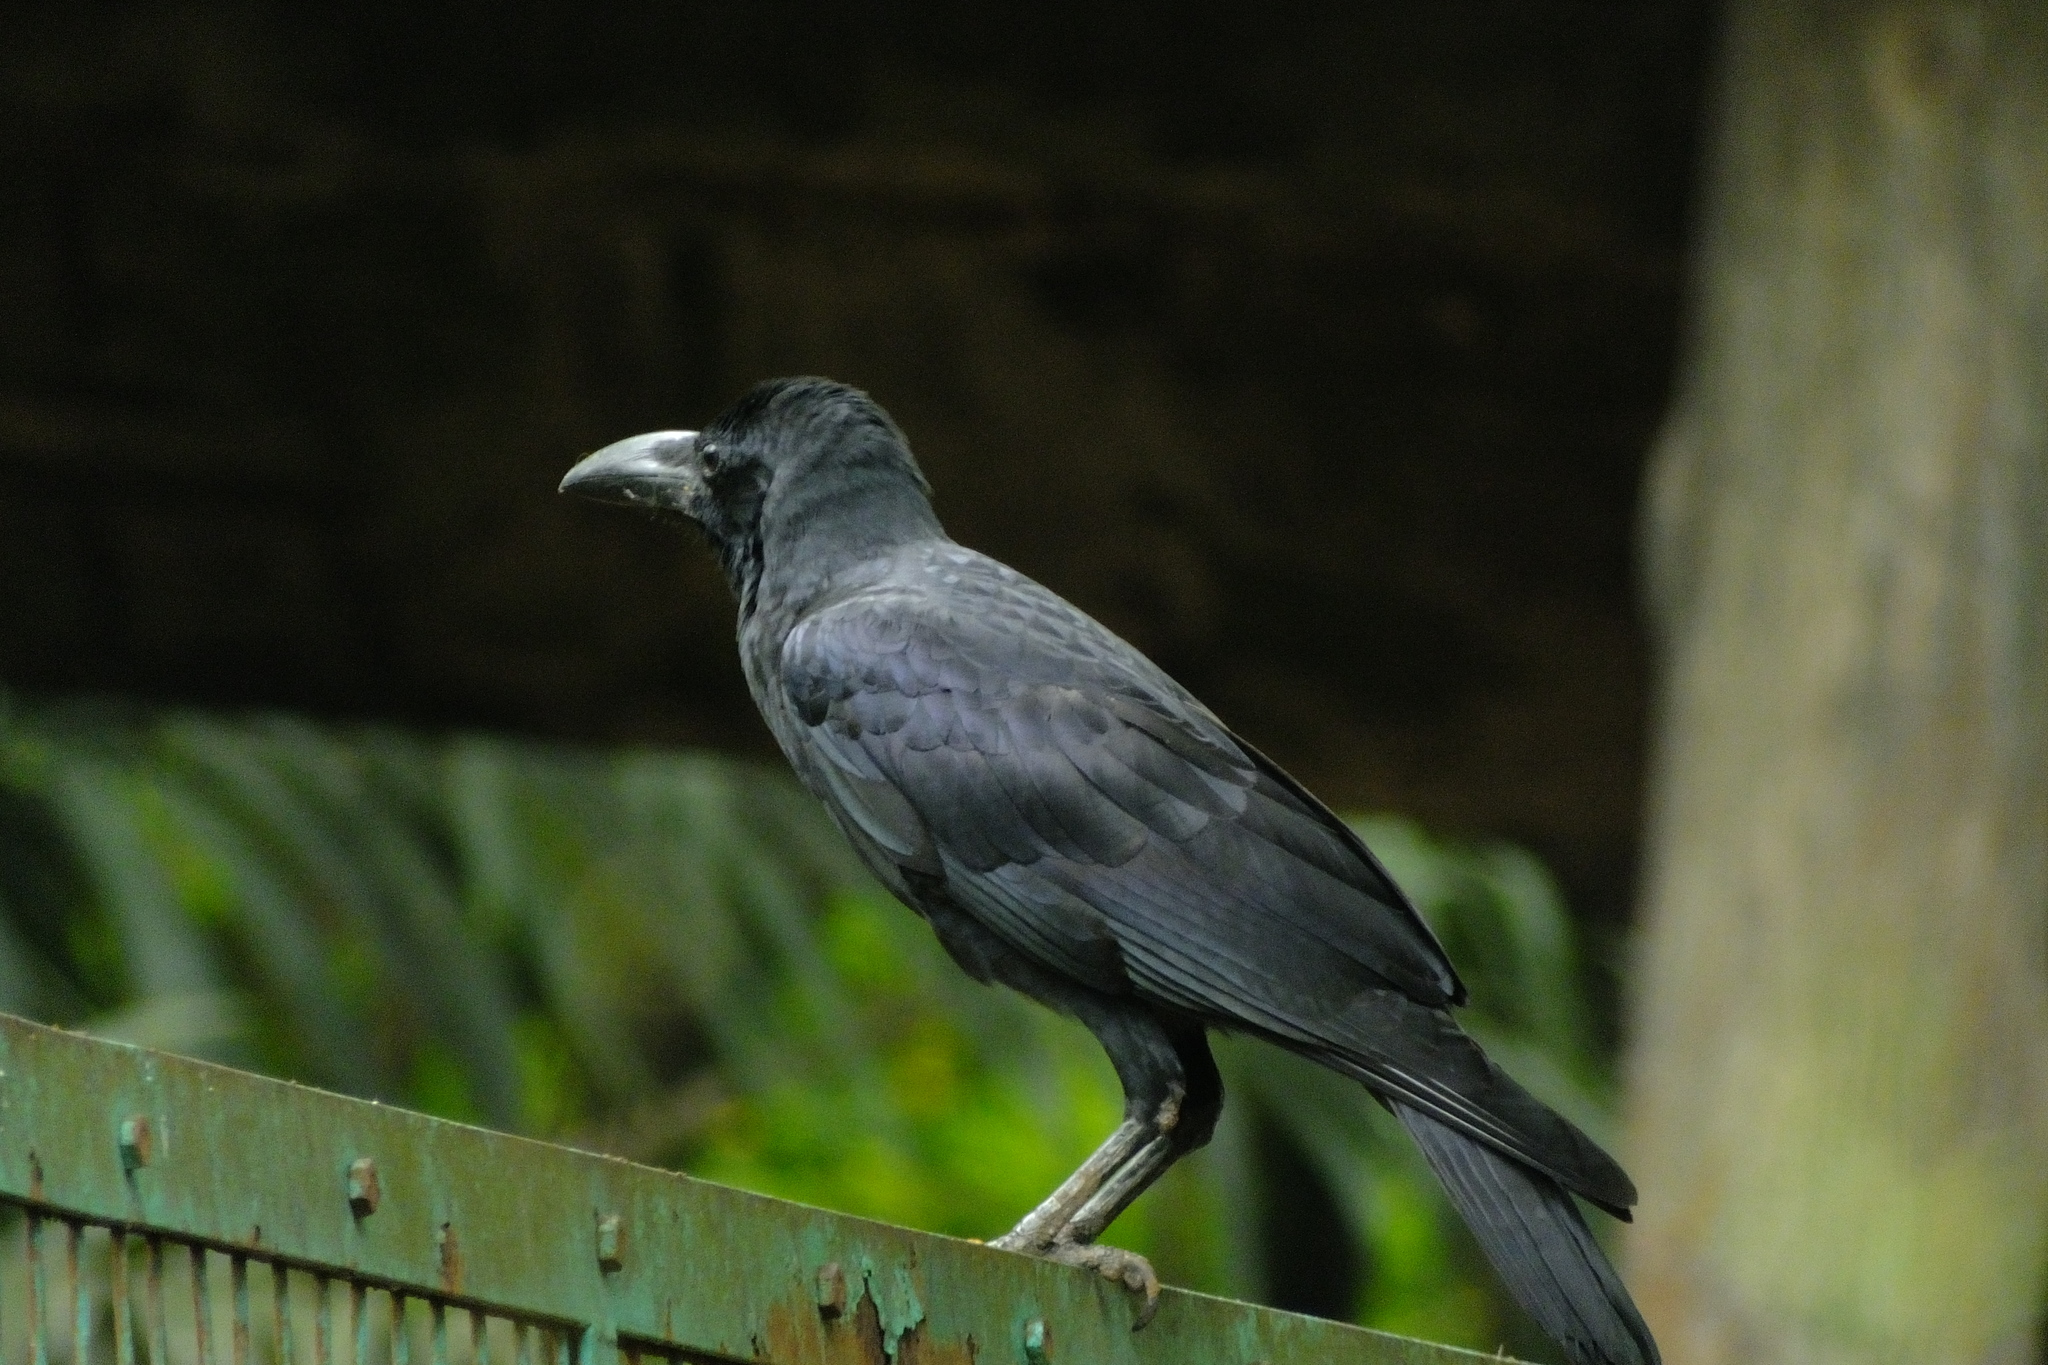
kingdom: Animalia
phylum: Chordata
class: Aves
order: Passeriformes
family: Corvidae
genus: Corvus
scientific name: Corvus macrorhynchos
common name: Large-billed crow
